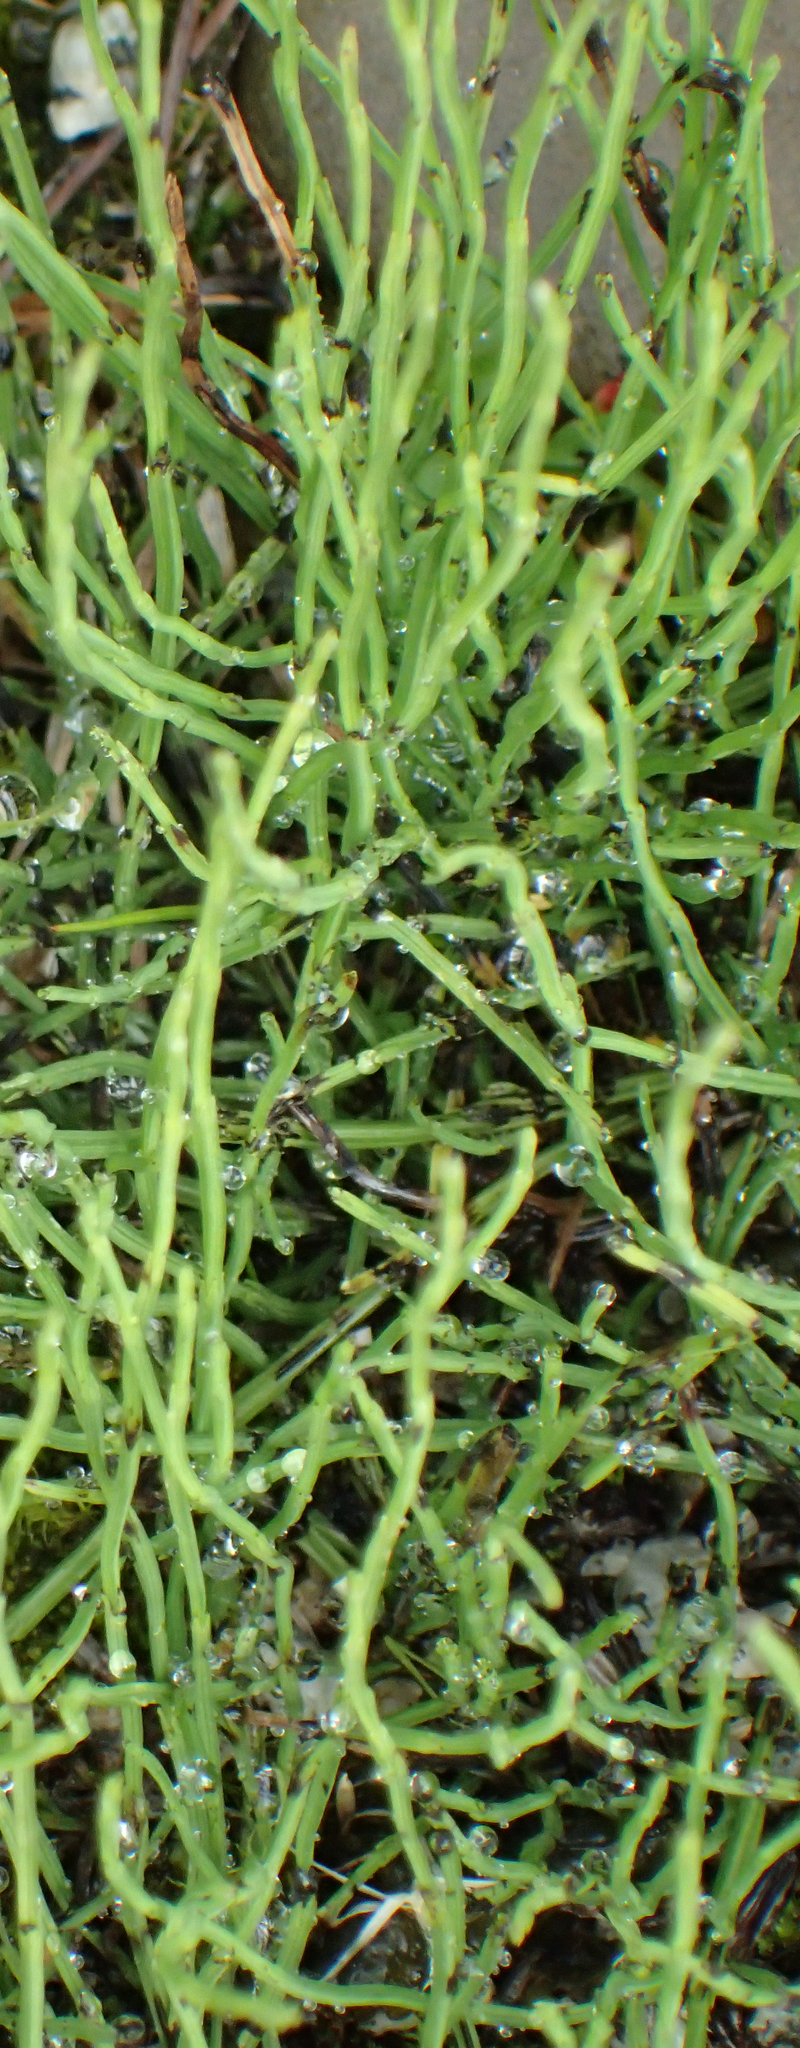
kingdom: Plantae
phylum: Tracheophyta
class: Polypodiopsida
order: Equisetales
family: Equisetaceae
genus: Equisetum
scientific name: Equisetum arvense
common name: Field horsetail
